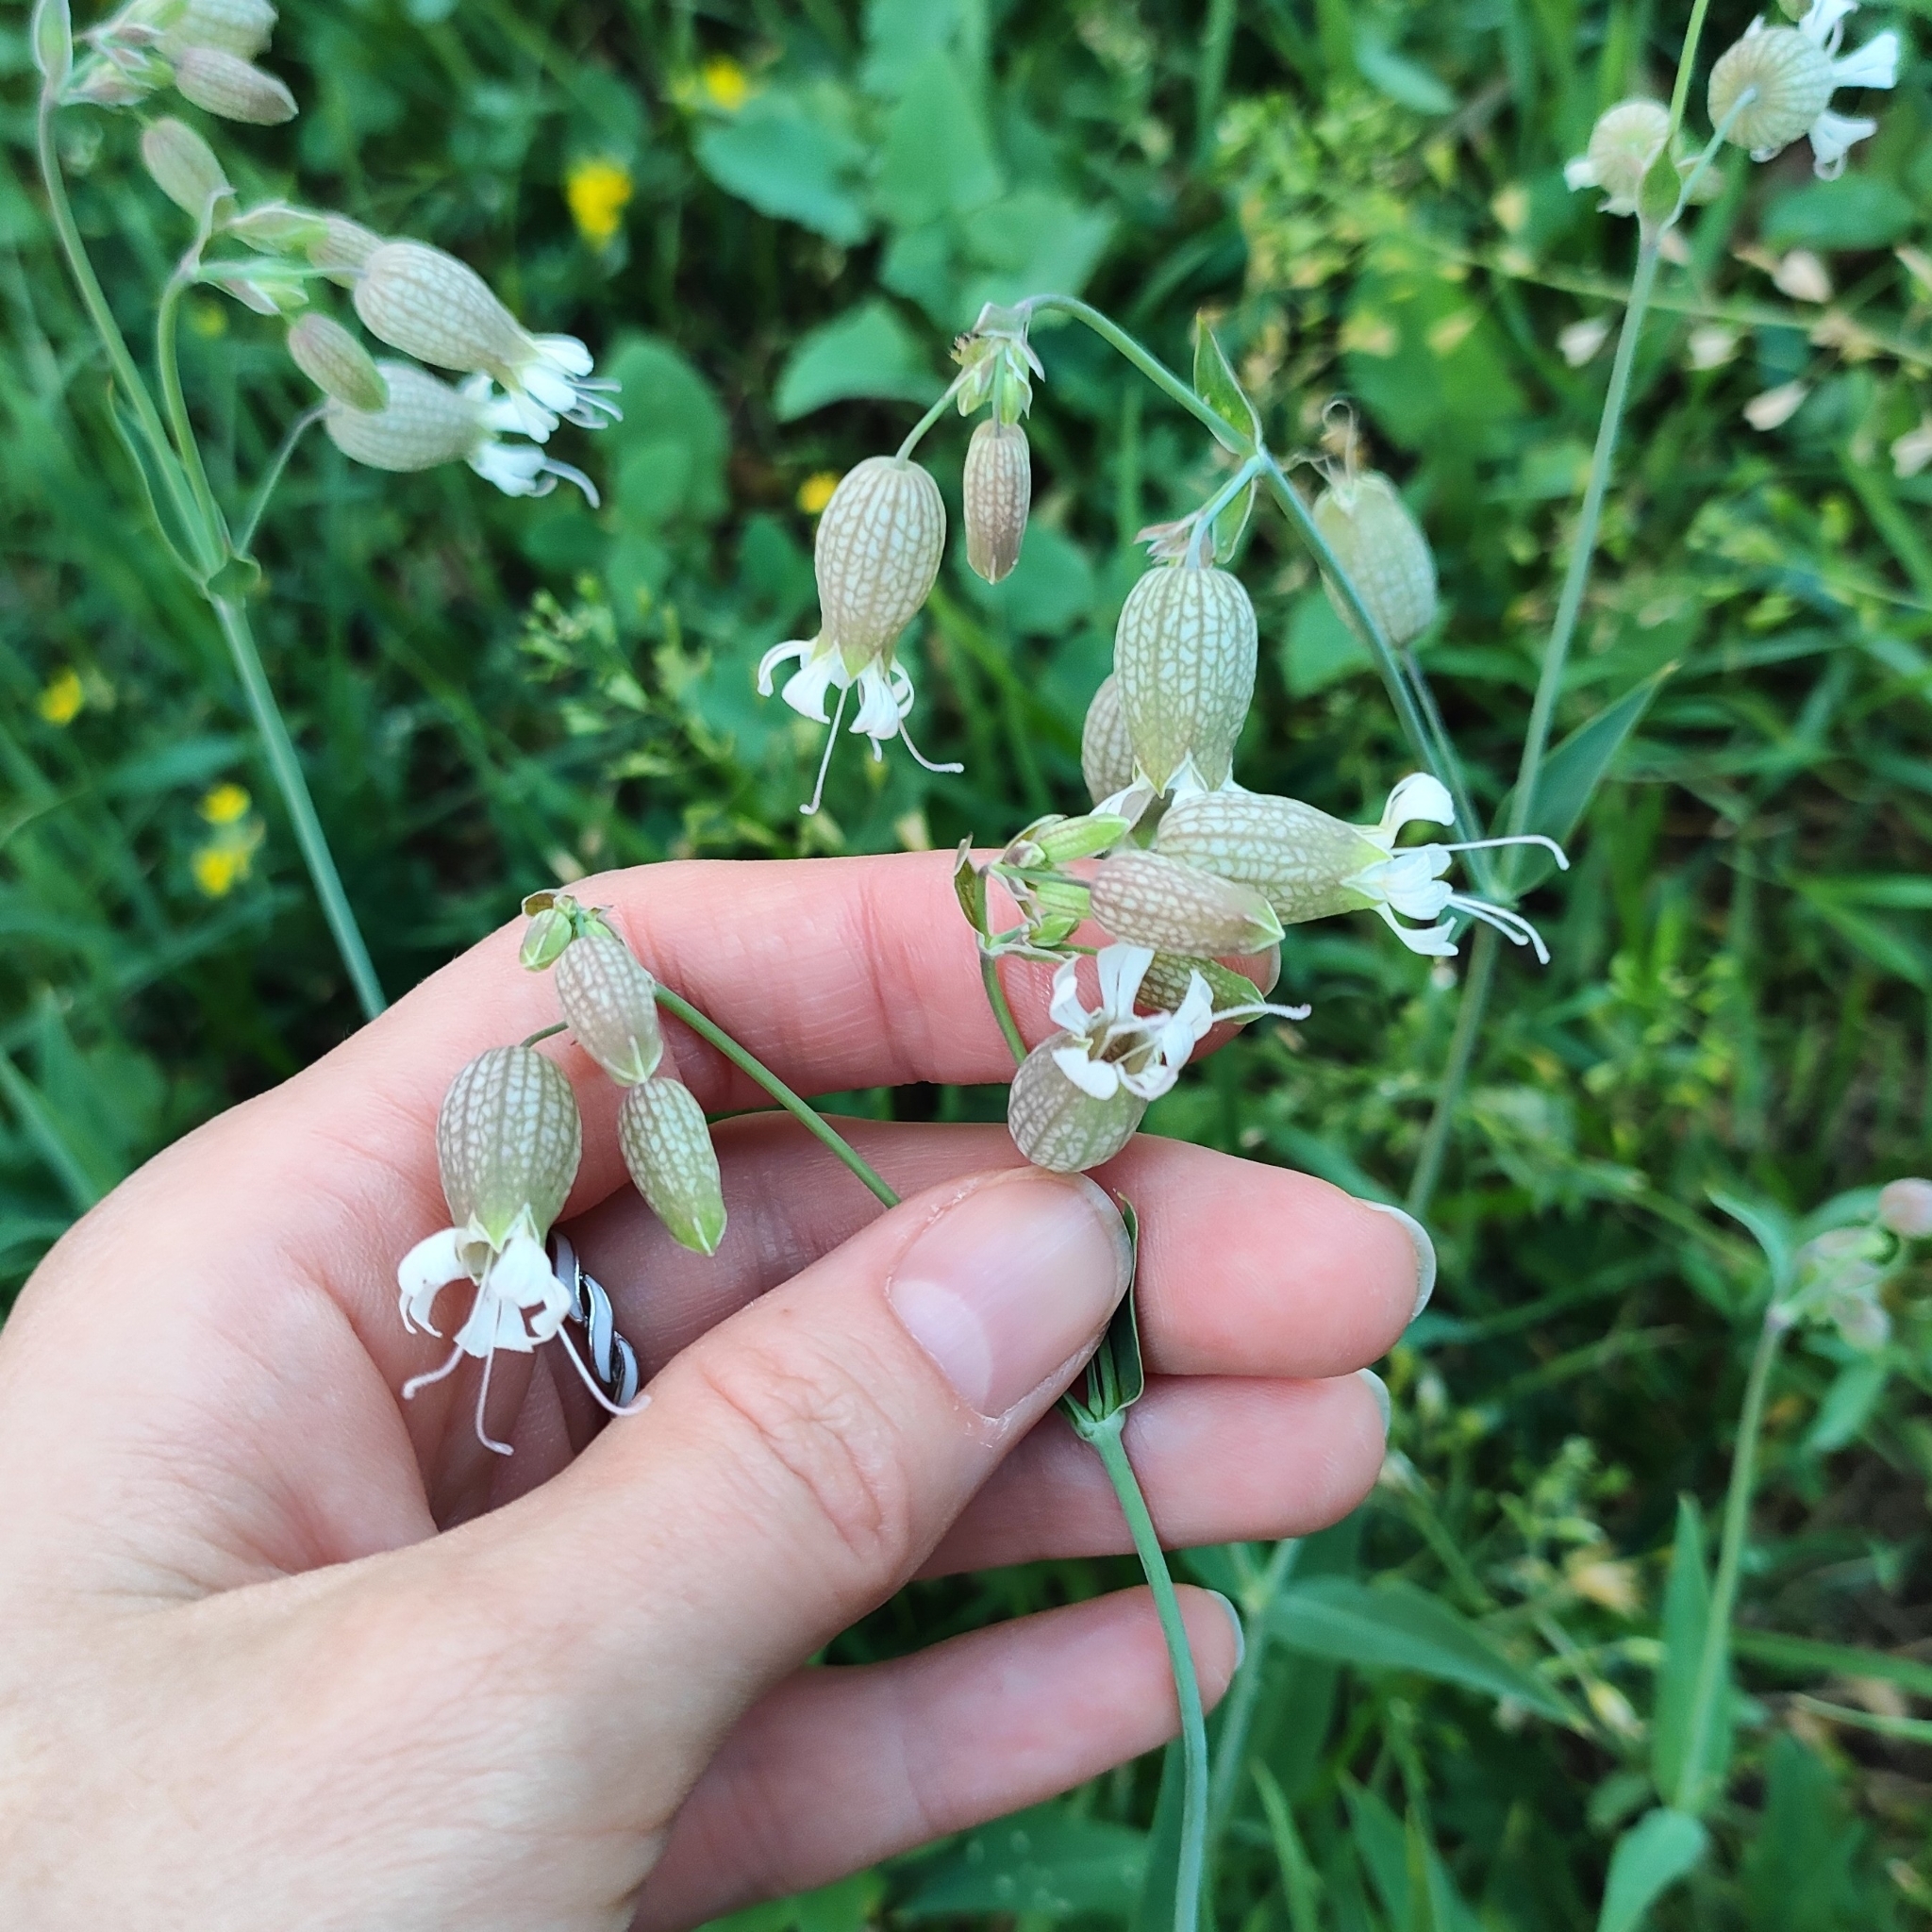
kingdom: Plantae
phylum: Tracheophyta
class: Magnoliopsida
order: Caryophyllales
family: Caryophyllaceae
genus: Silene
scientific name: Silene vulgaris
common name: Bladder campion
